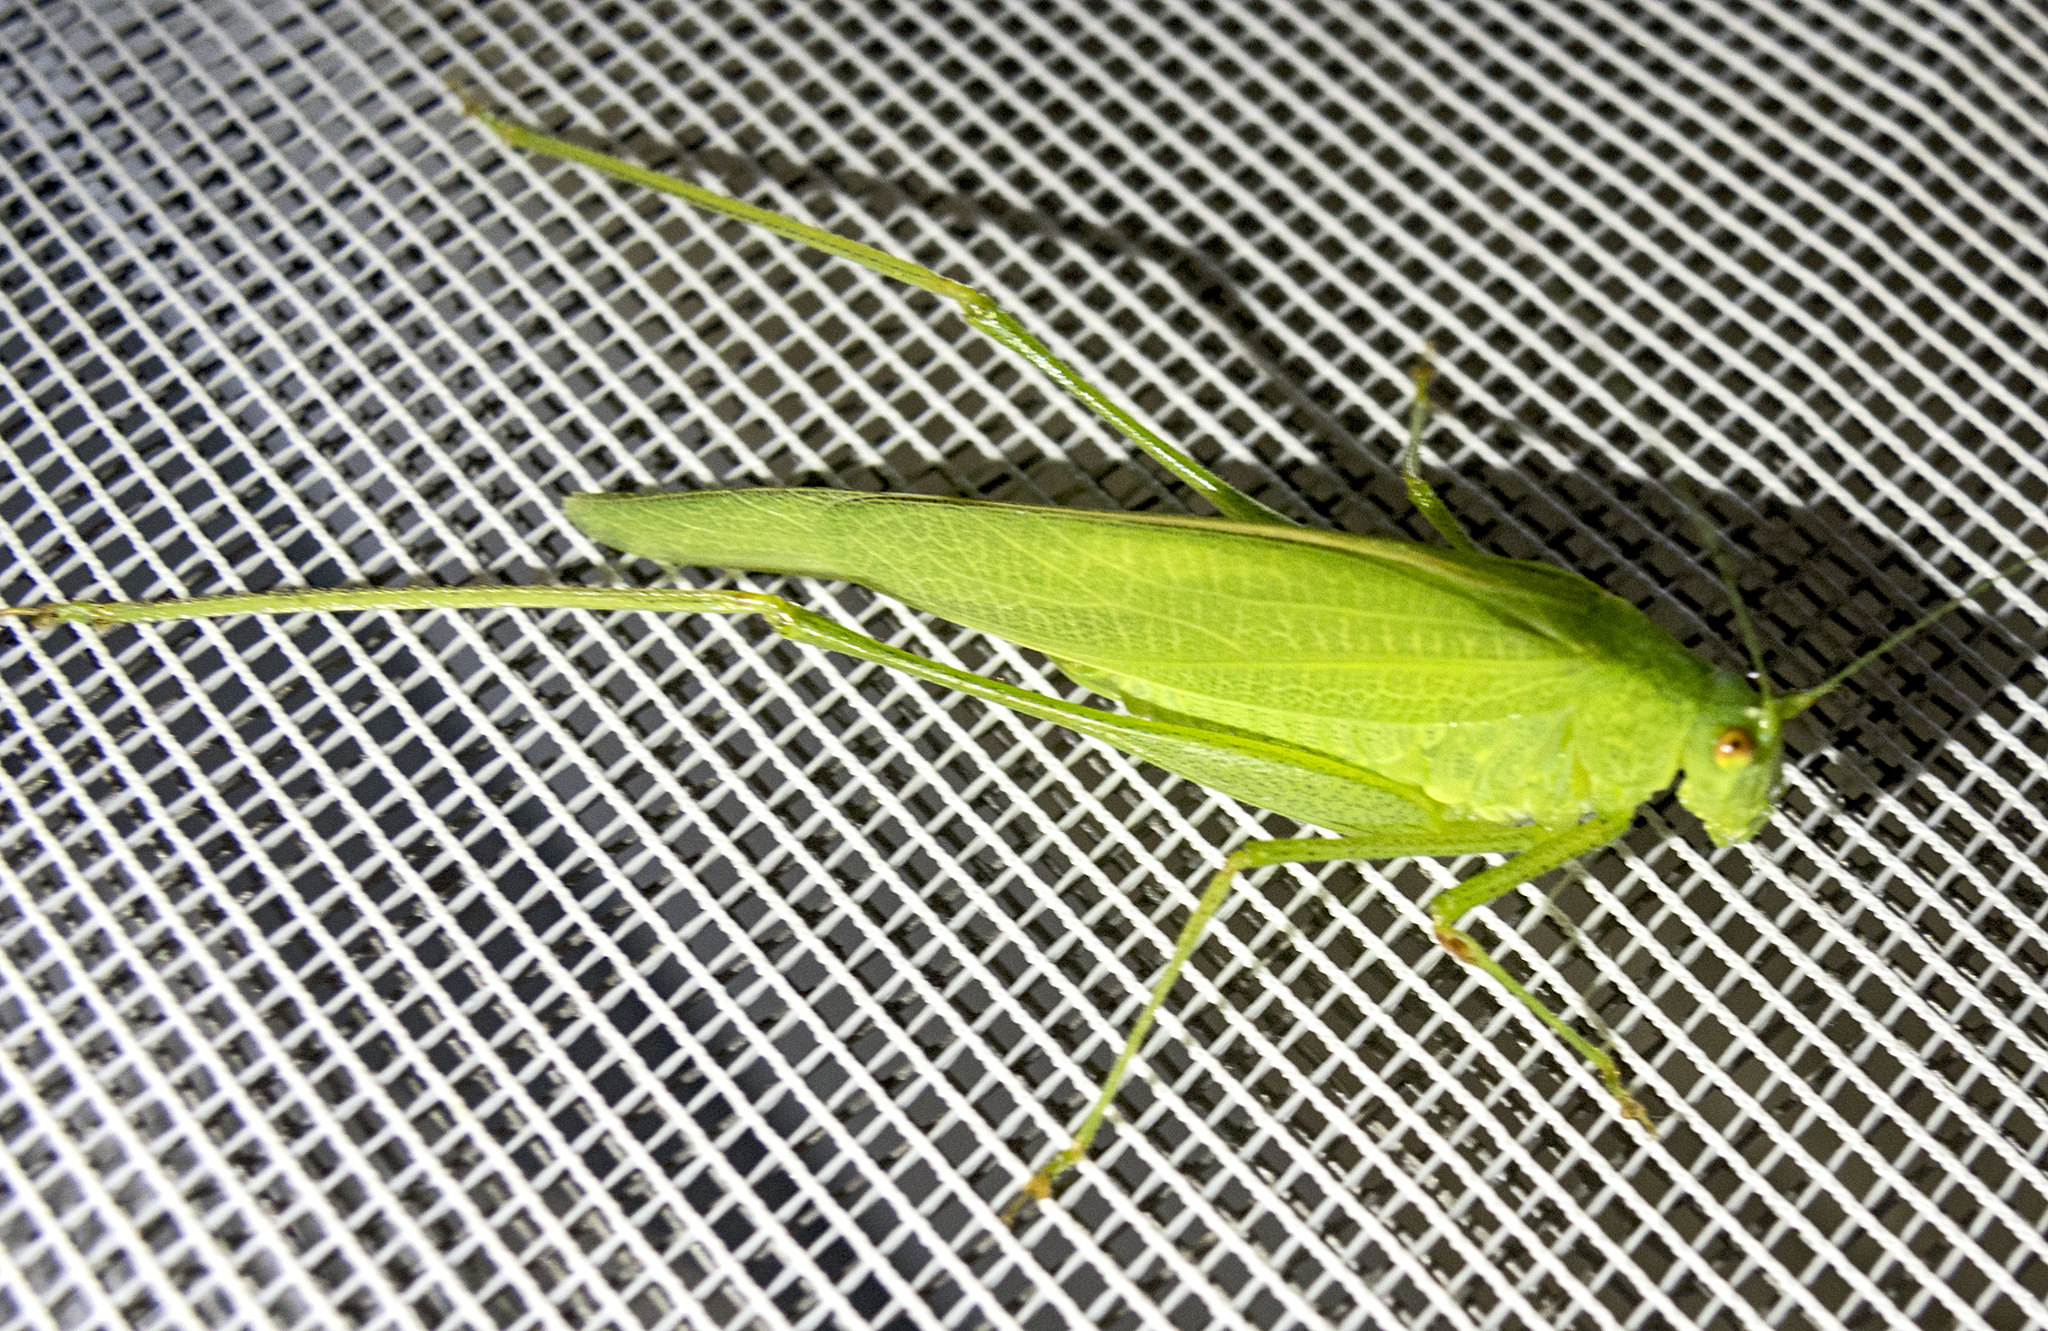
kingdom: Animalia
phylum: Arthropoda
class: Insecta
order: Orthoptera
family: Tettigoniidae
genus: Phaneroptera
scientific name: Phaneroptera nana
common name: Southern sickle bush-cricket
